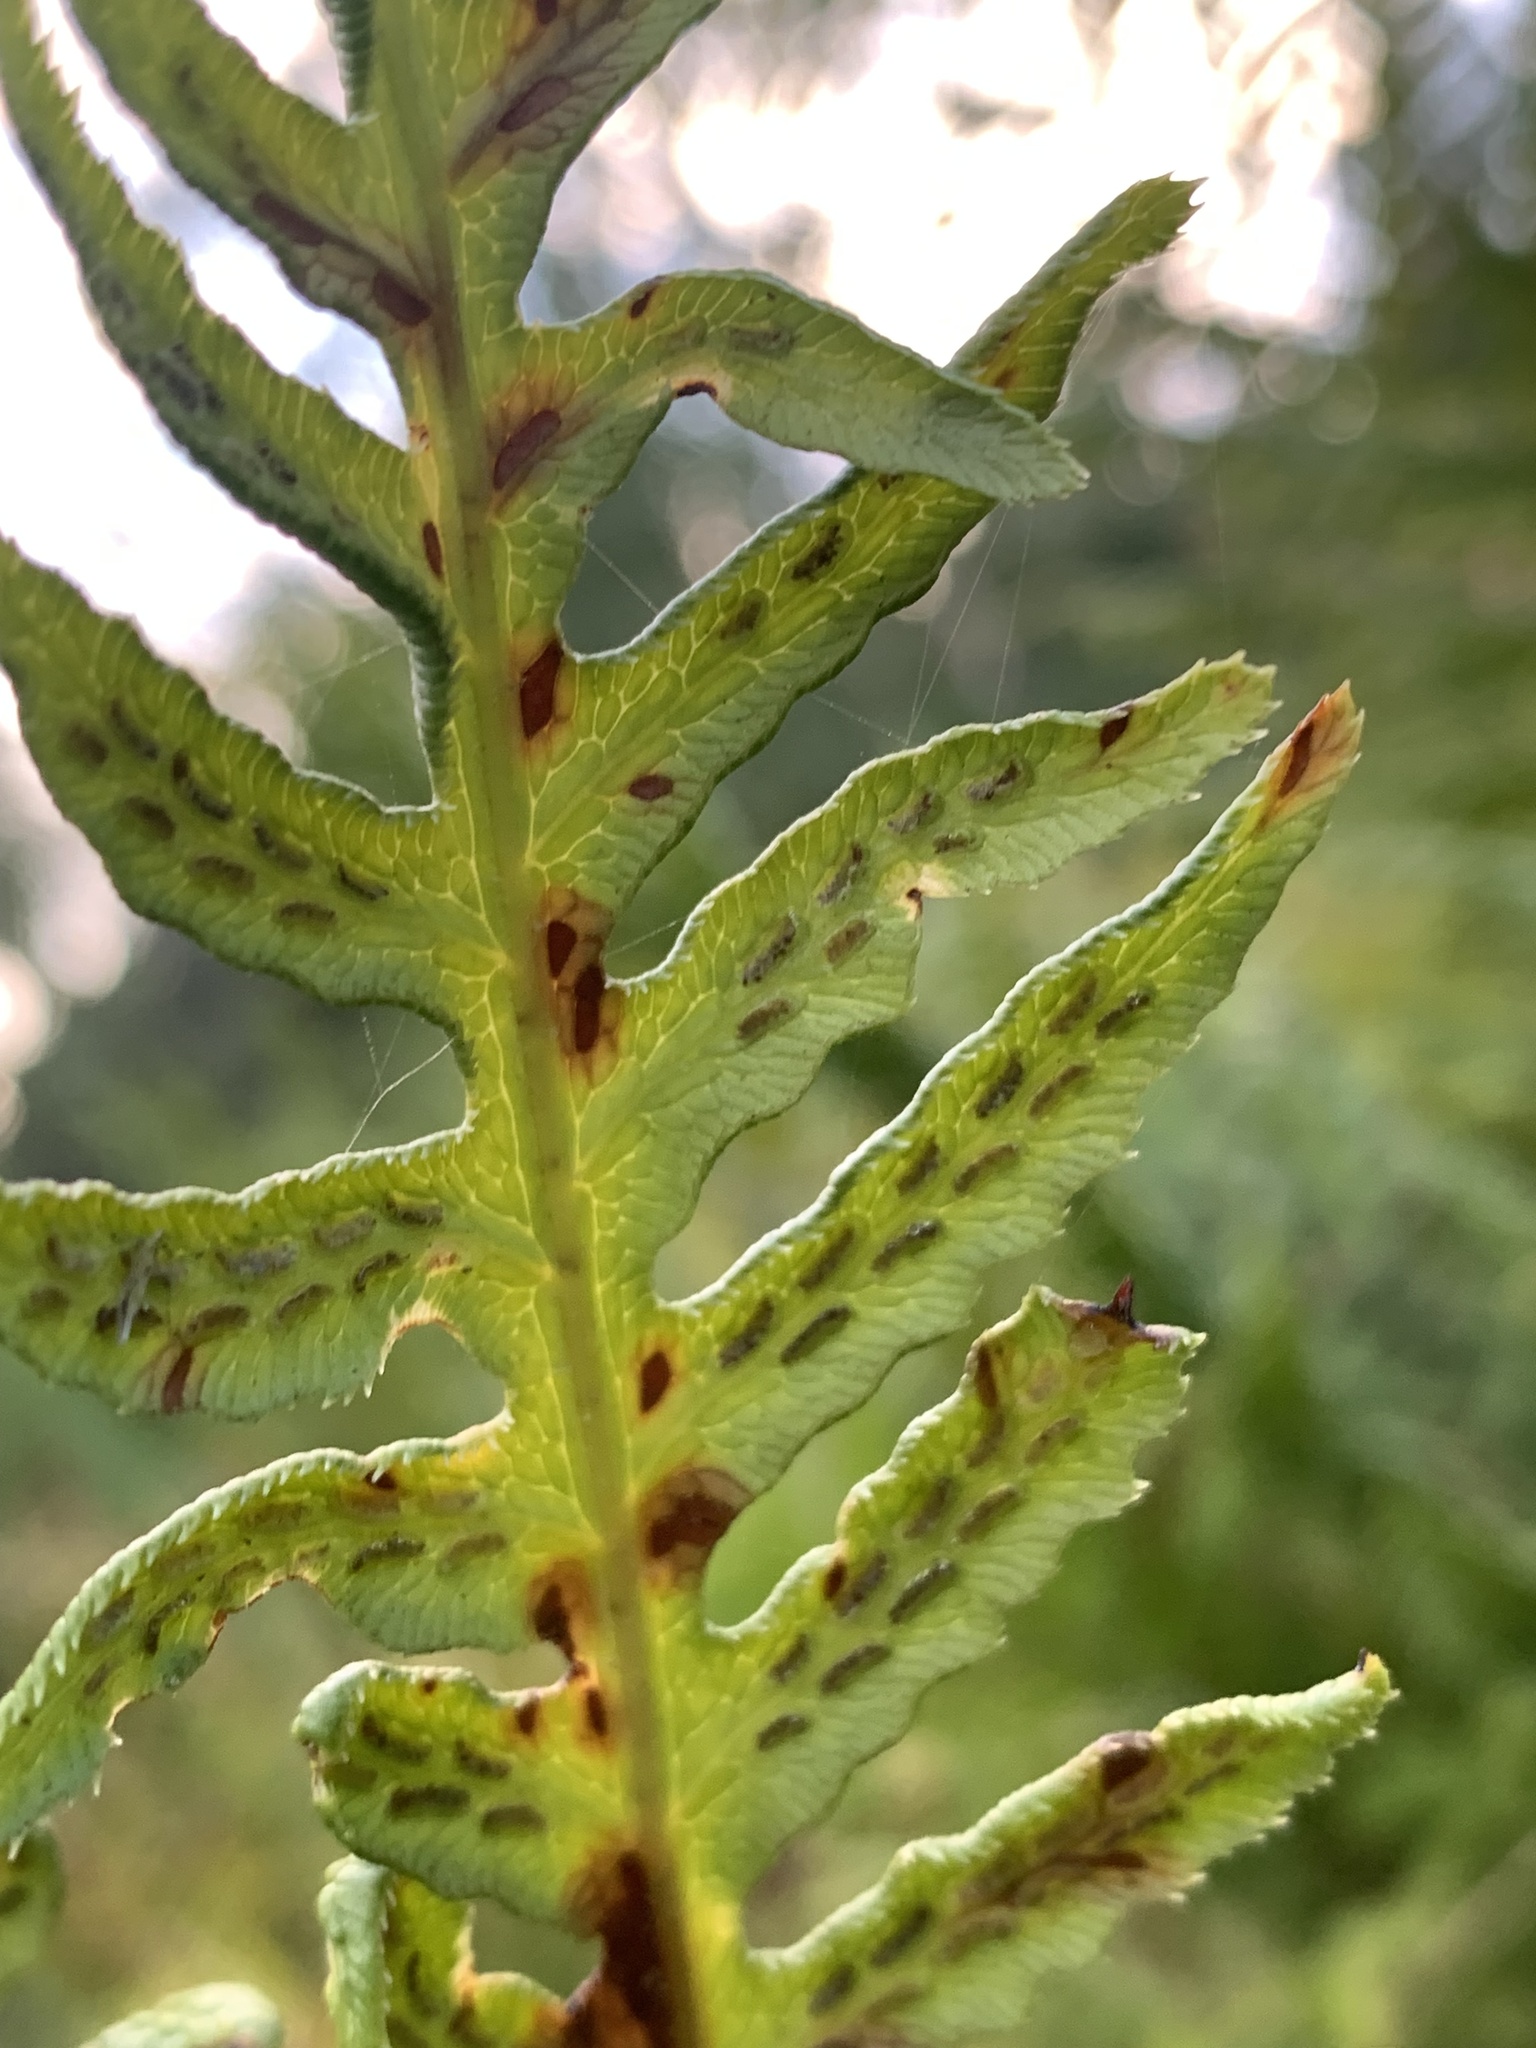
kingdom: Plantae
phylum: Tracheophyta
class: Polypodiopsida
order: Polypodiales
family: Blechnaceae
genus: Woodwardia
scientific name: Woodwardia fimbriata
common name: Giant chain fern
